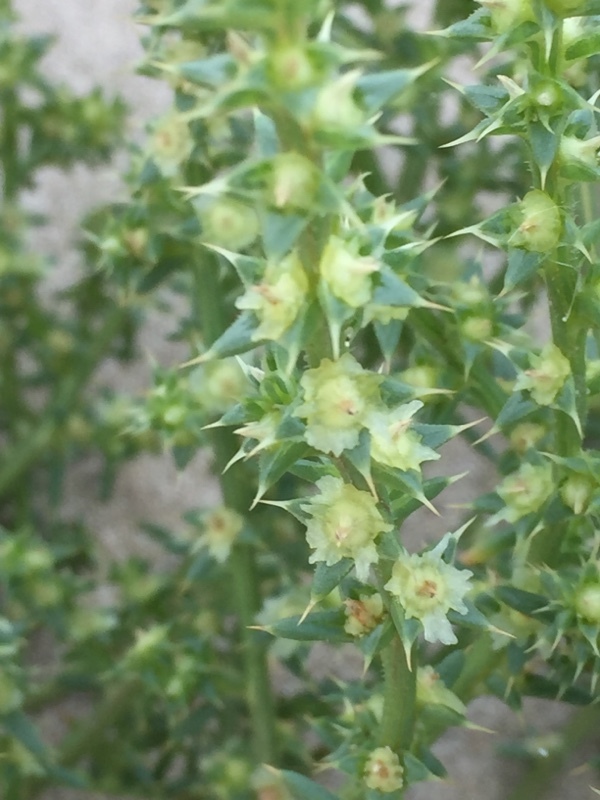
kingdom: Plantae
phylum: Tracheophyta
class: Magnoliopsida
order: Caryophyllales
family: Amaranthaceae
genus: Salsola
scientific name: Salsola kali
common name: Saltwort
